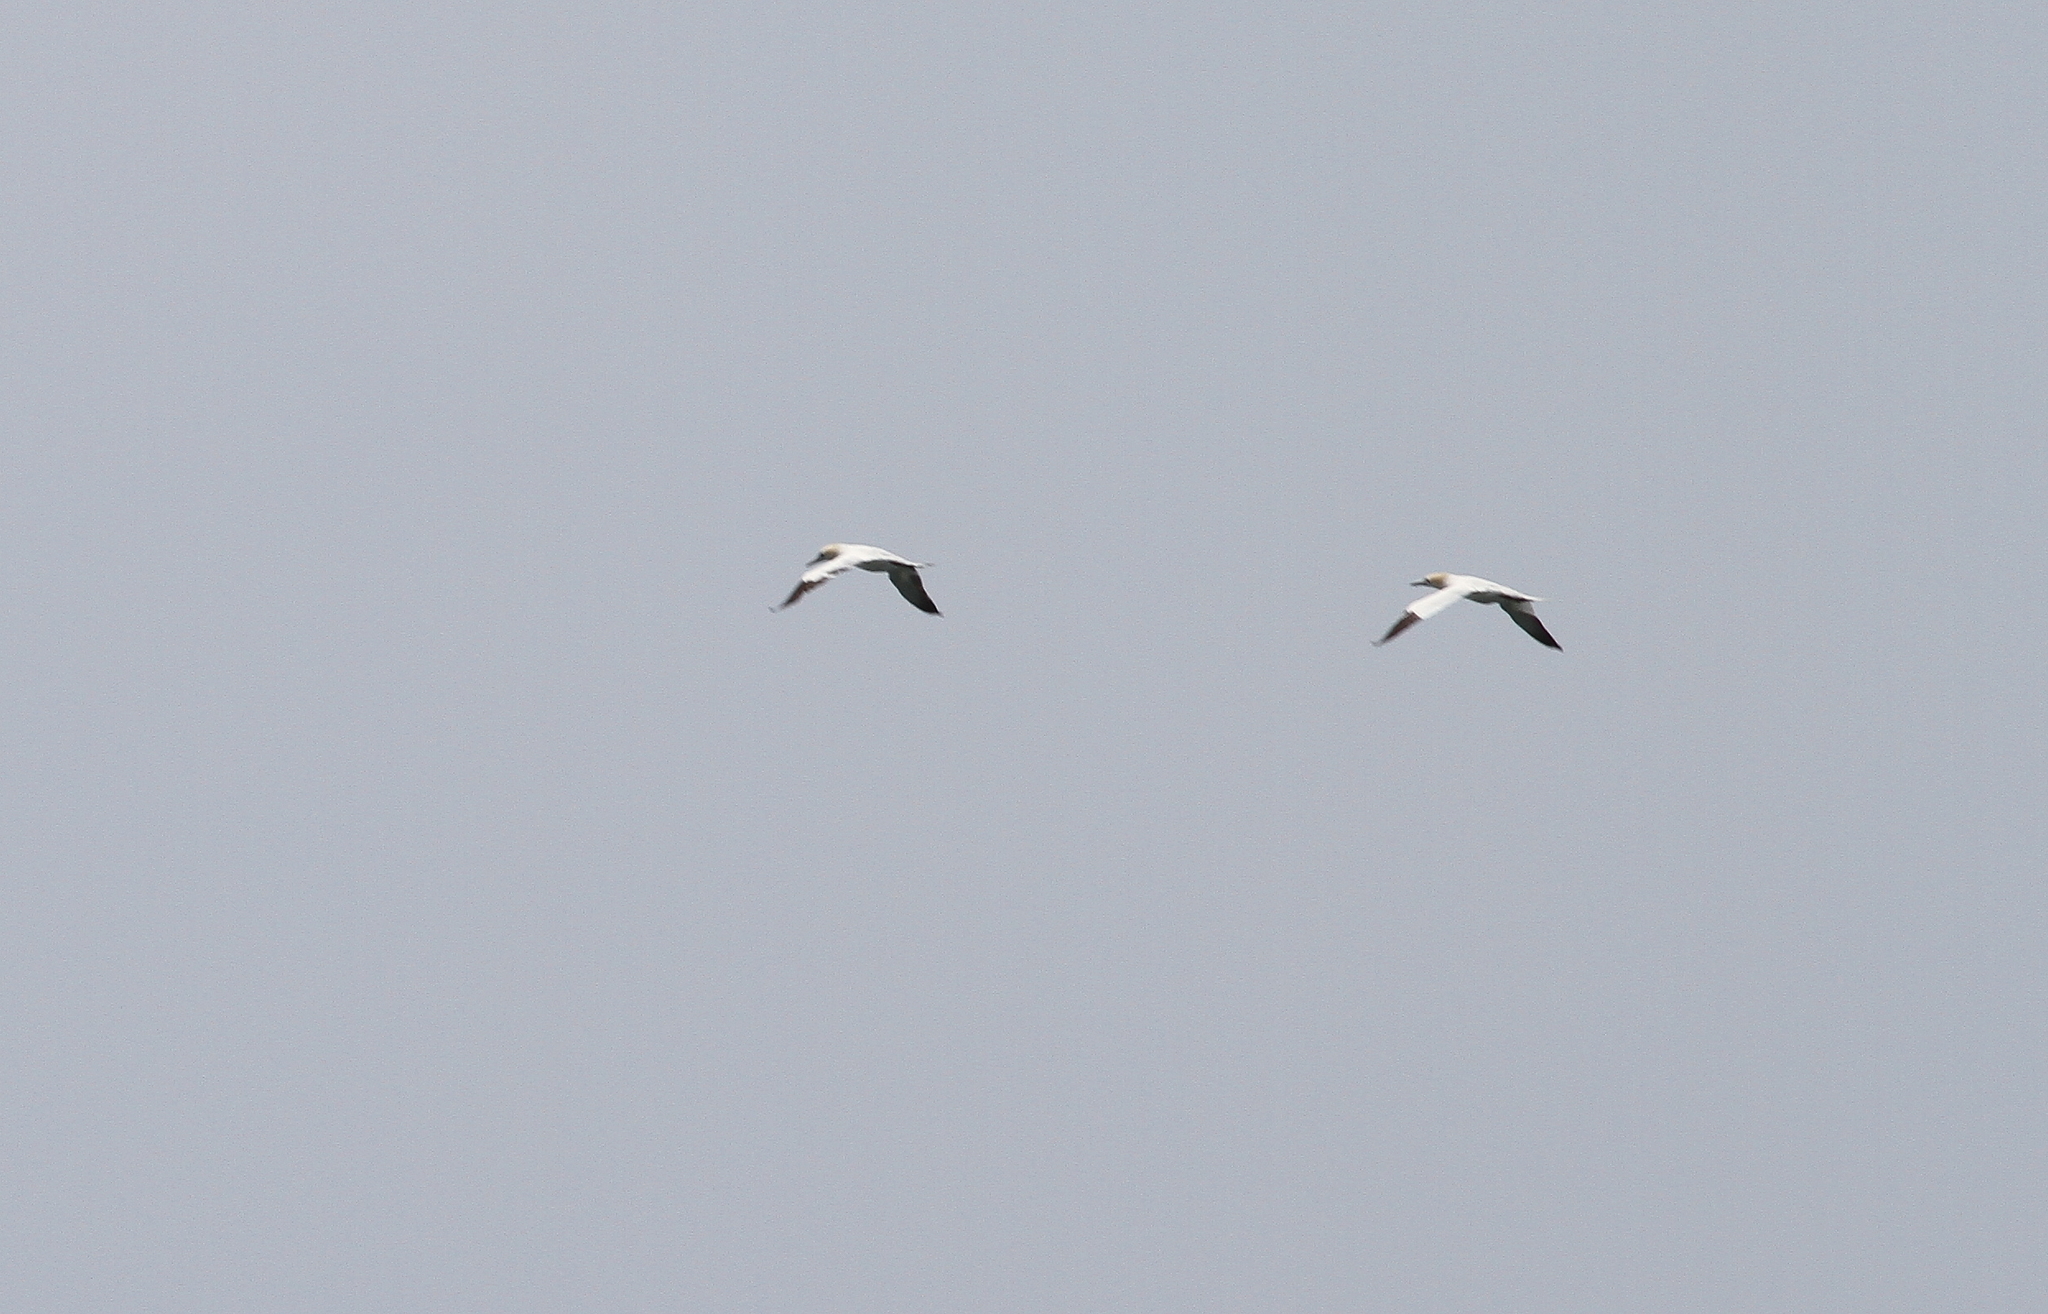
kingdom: Animalia
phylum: Chordata
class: Aves
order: Suliformes
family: Sulidae
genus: Morus
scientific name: Morus bassanus
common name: Northern gannet
